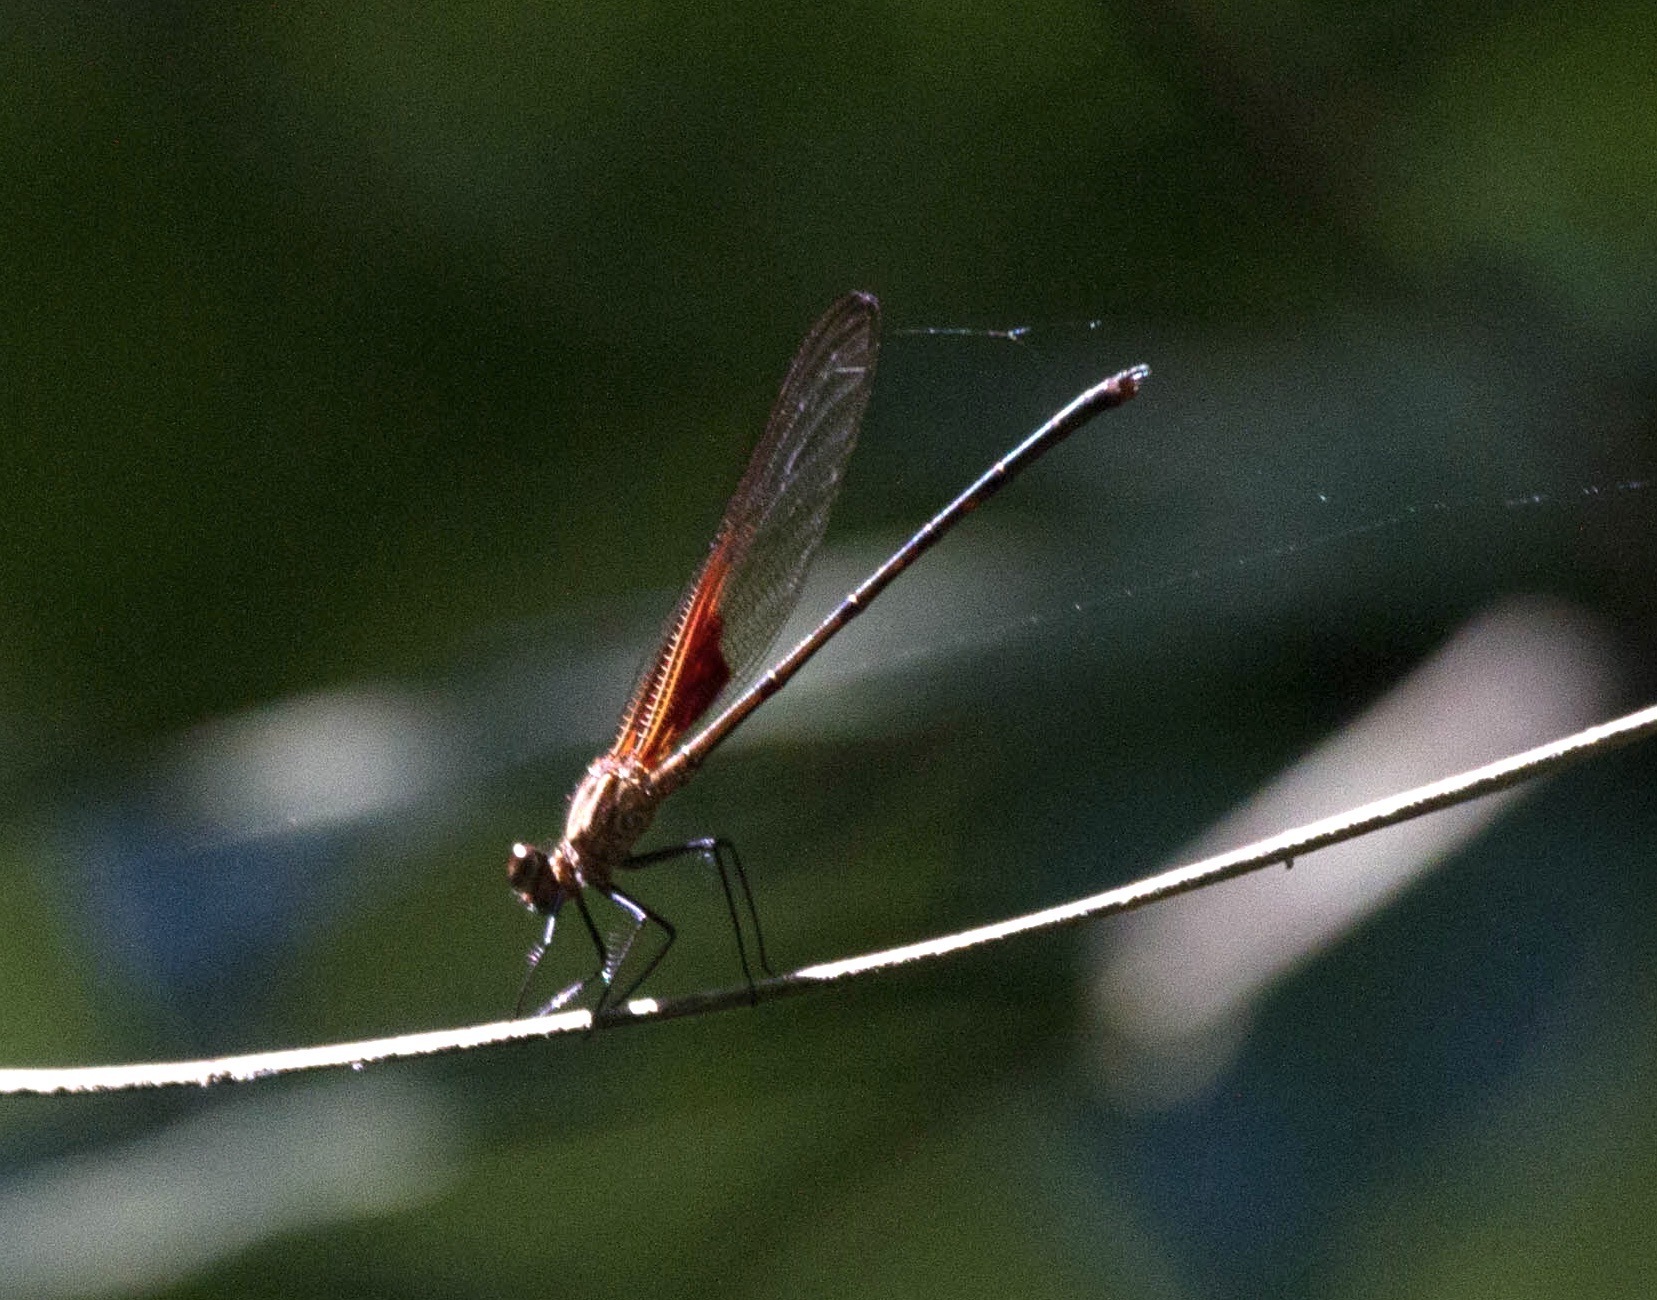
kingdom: Animalia
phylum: Arthropoda
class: Insecta
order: Odonata
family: Calopterygidae
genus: Hetaerina
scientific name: Hetaerina occisa
